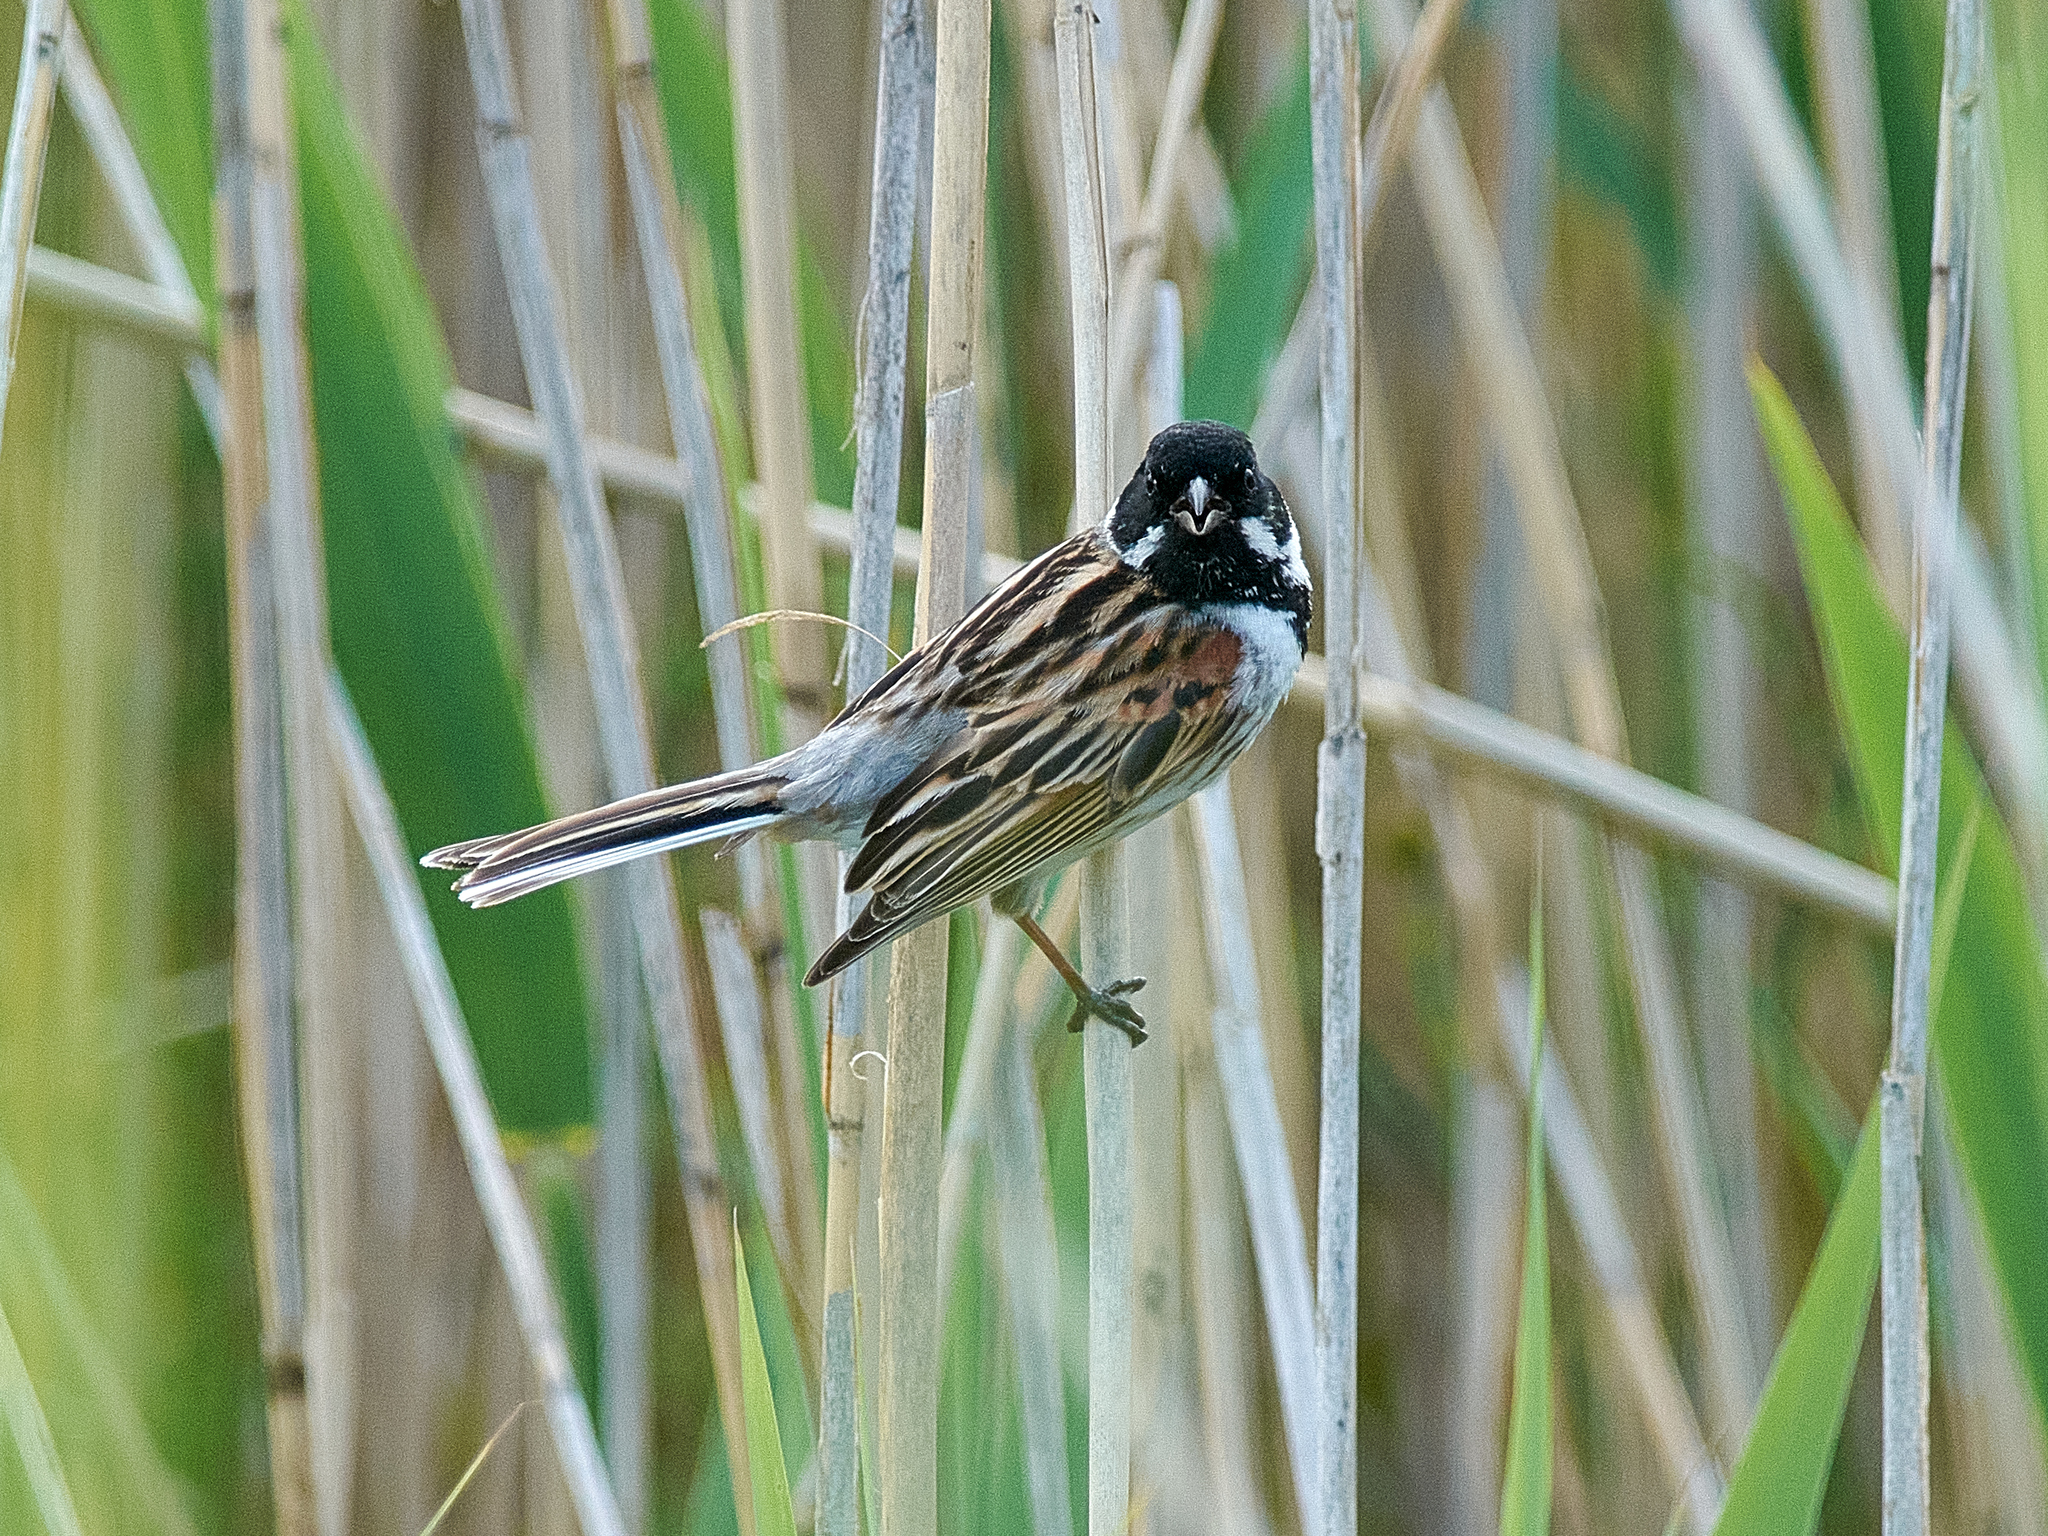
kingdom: Animalia
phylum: Chordata
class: Aves
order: Passeriformes
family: Emberizidae
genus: Emberiza
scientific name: Emberiza schoeniclus
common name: Reed bunting
